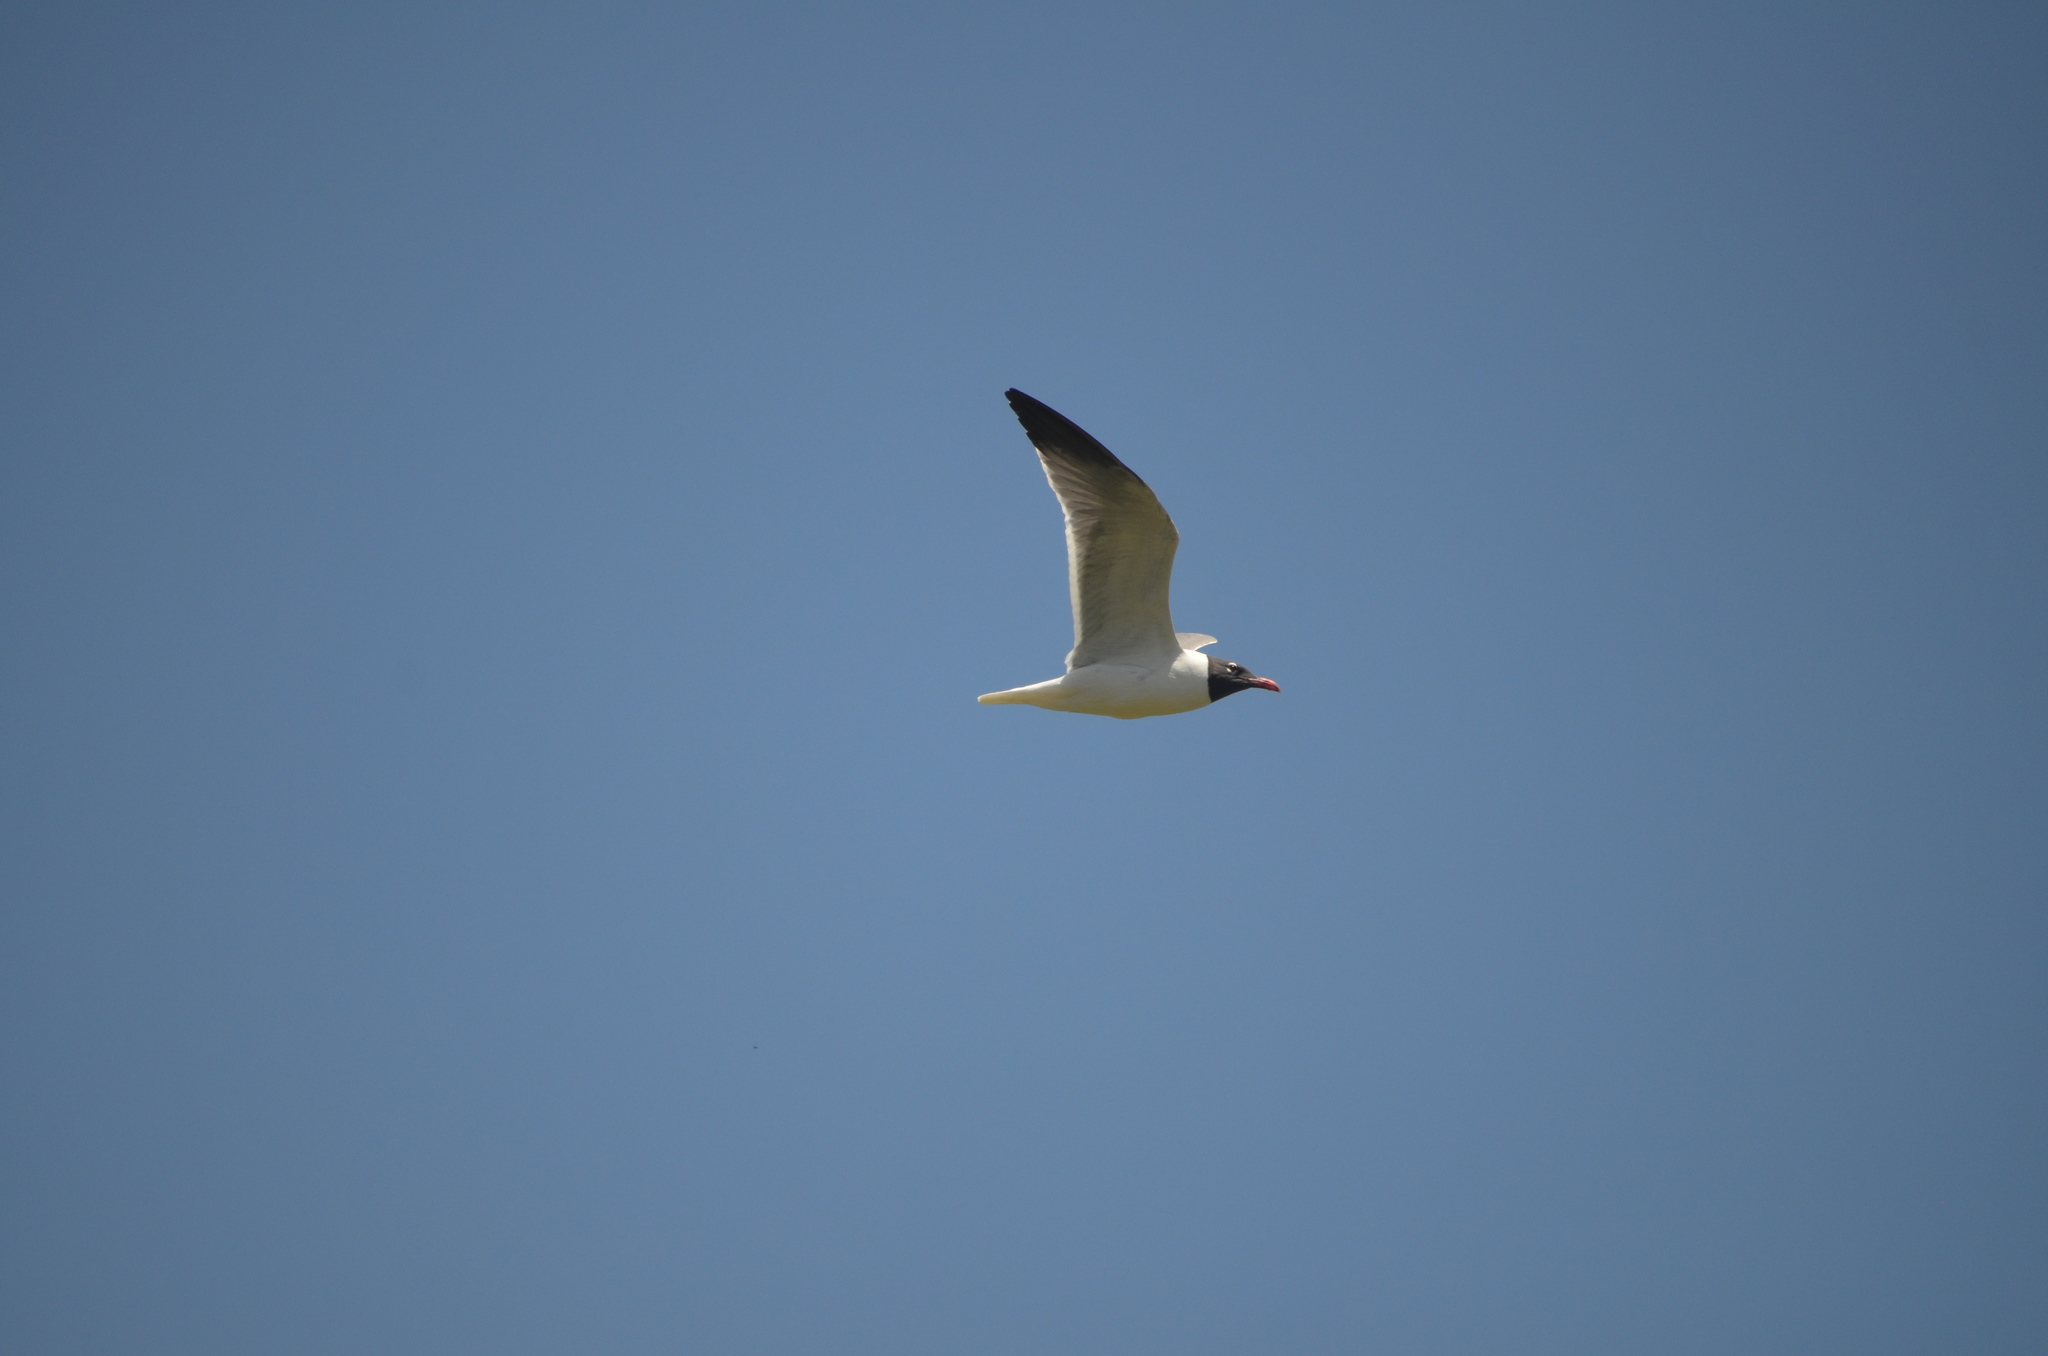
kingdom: Animalia
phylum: Chordata
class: Aves
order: Charadriiformes
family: Laridae
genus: Leucophaeus
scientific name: Leucophaeus atricilla
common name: Laughing gull
